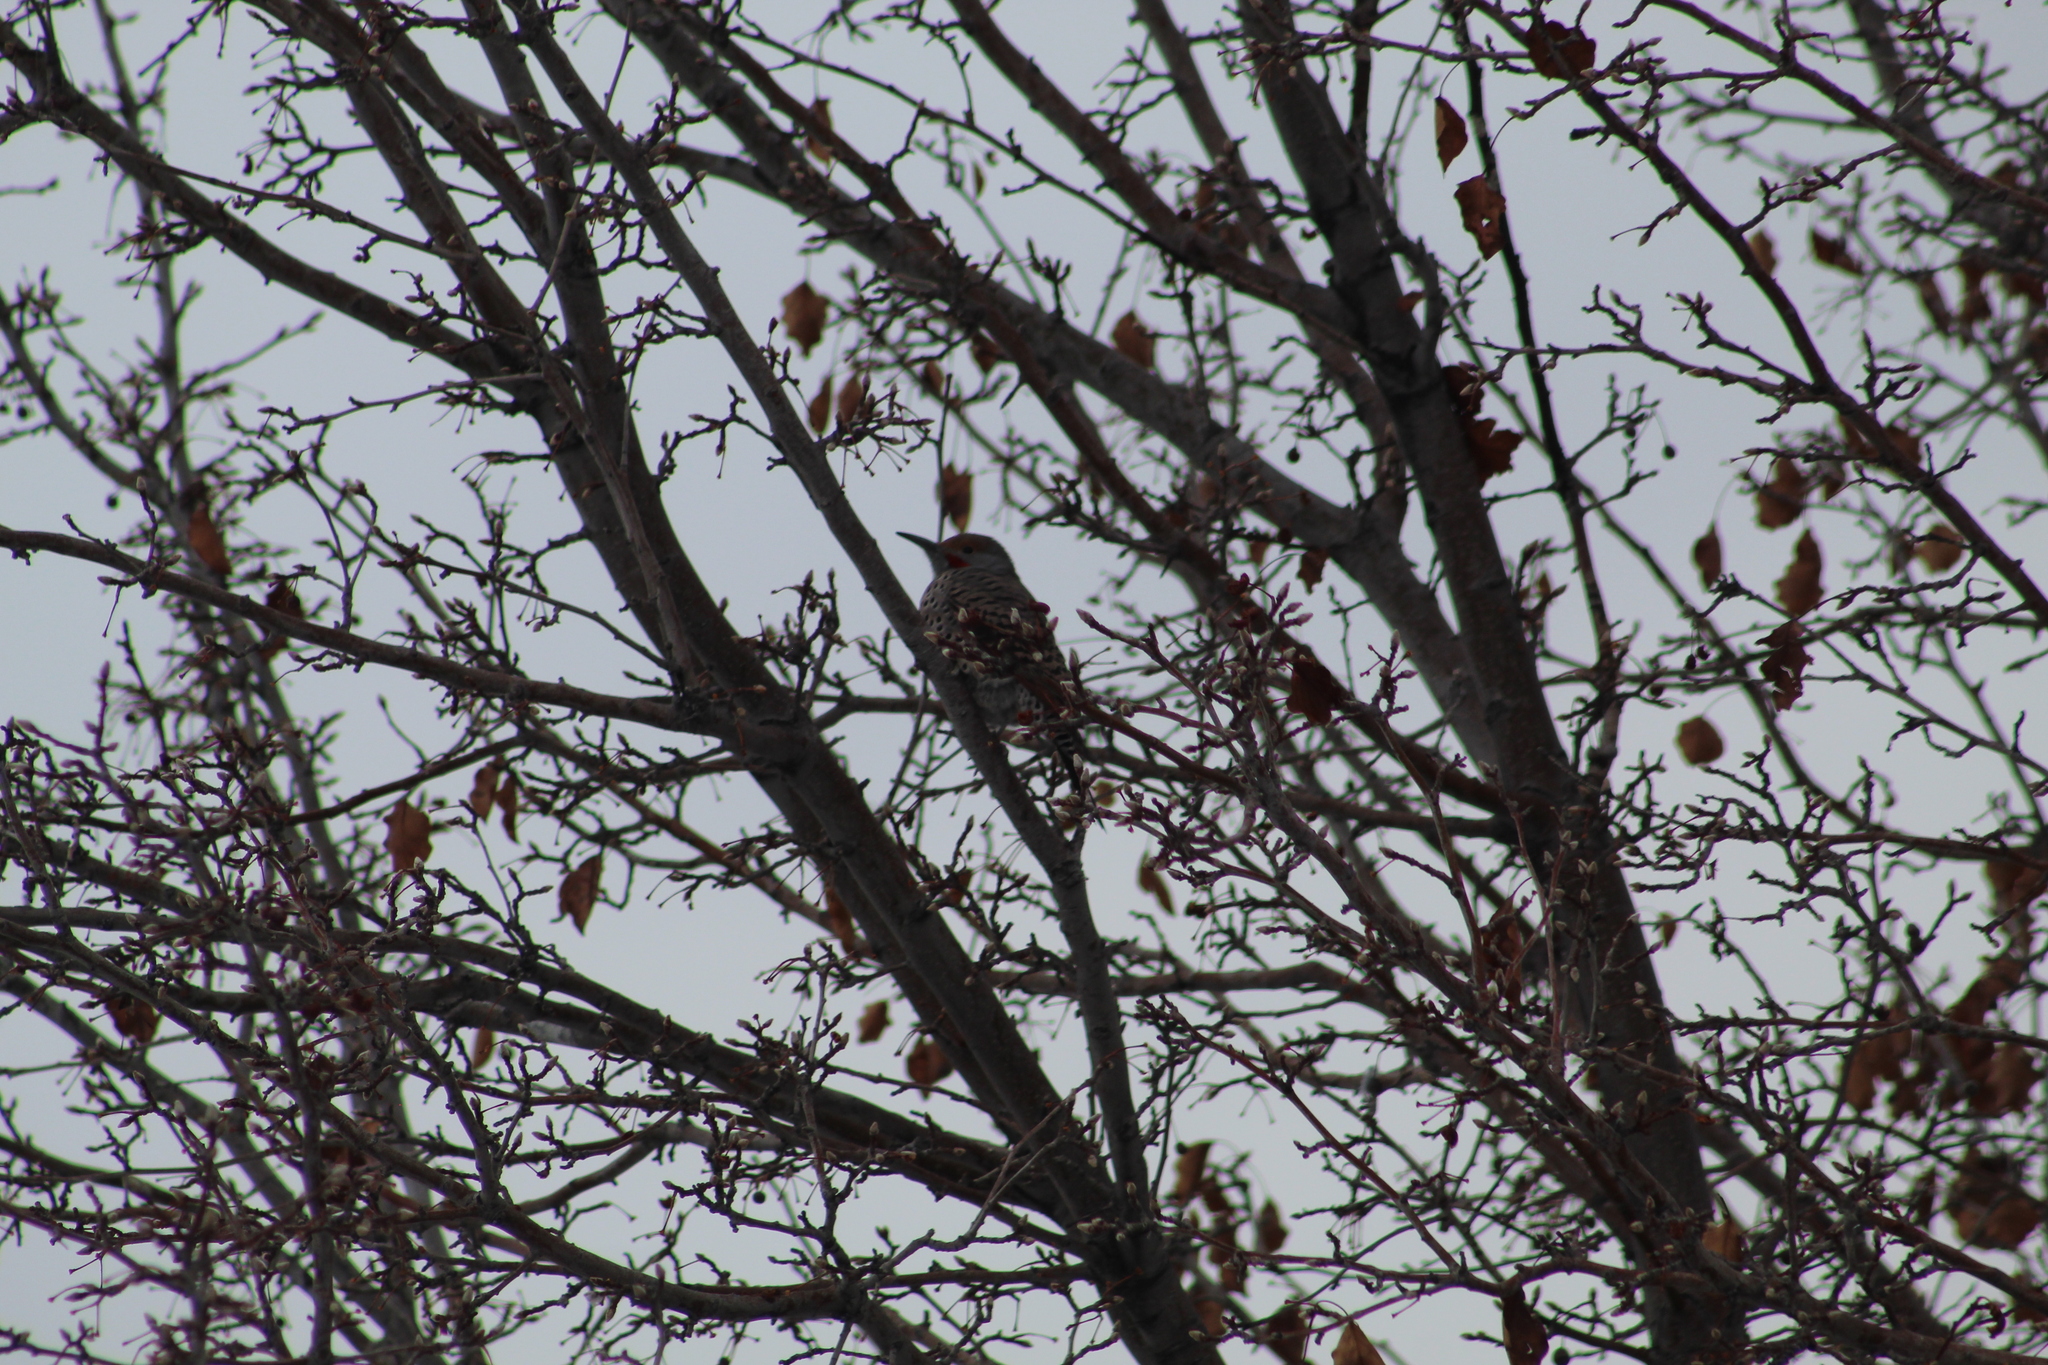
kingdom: Animalia
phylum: Chordata
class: Aves
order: Piciformes
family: Picidae
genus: Colaptes
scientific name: Colaptes auratus
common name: Northern flicker
